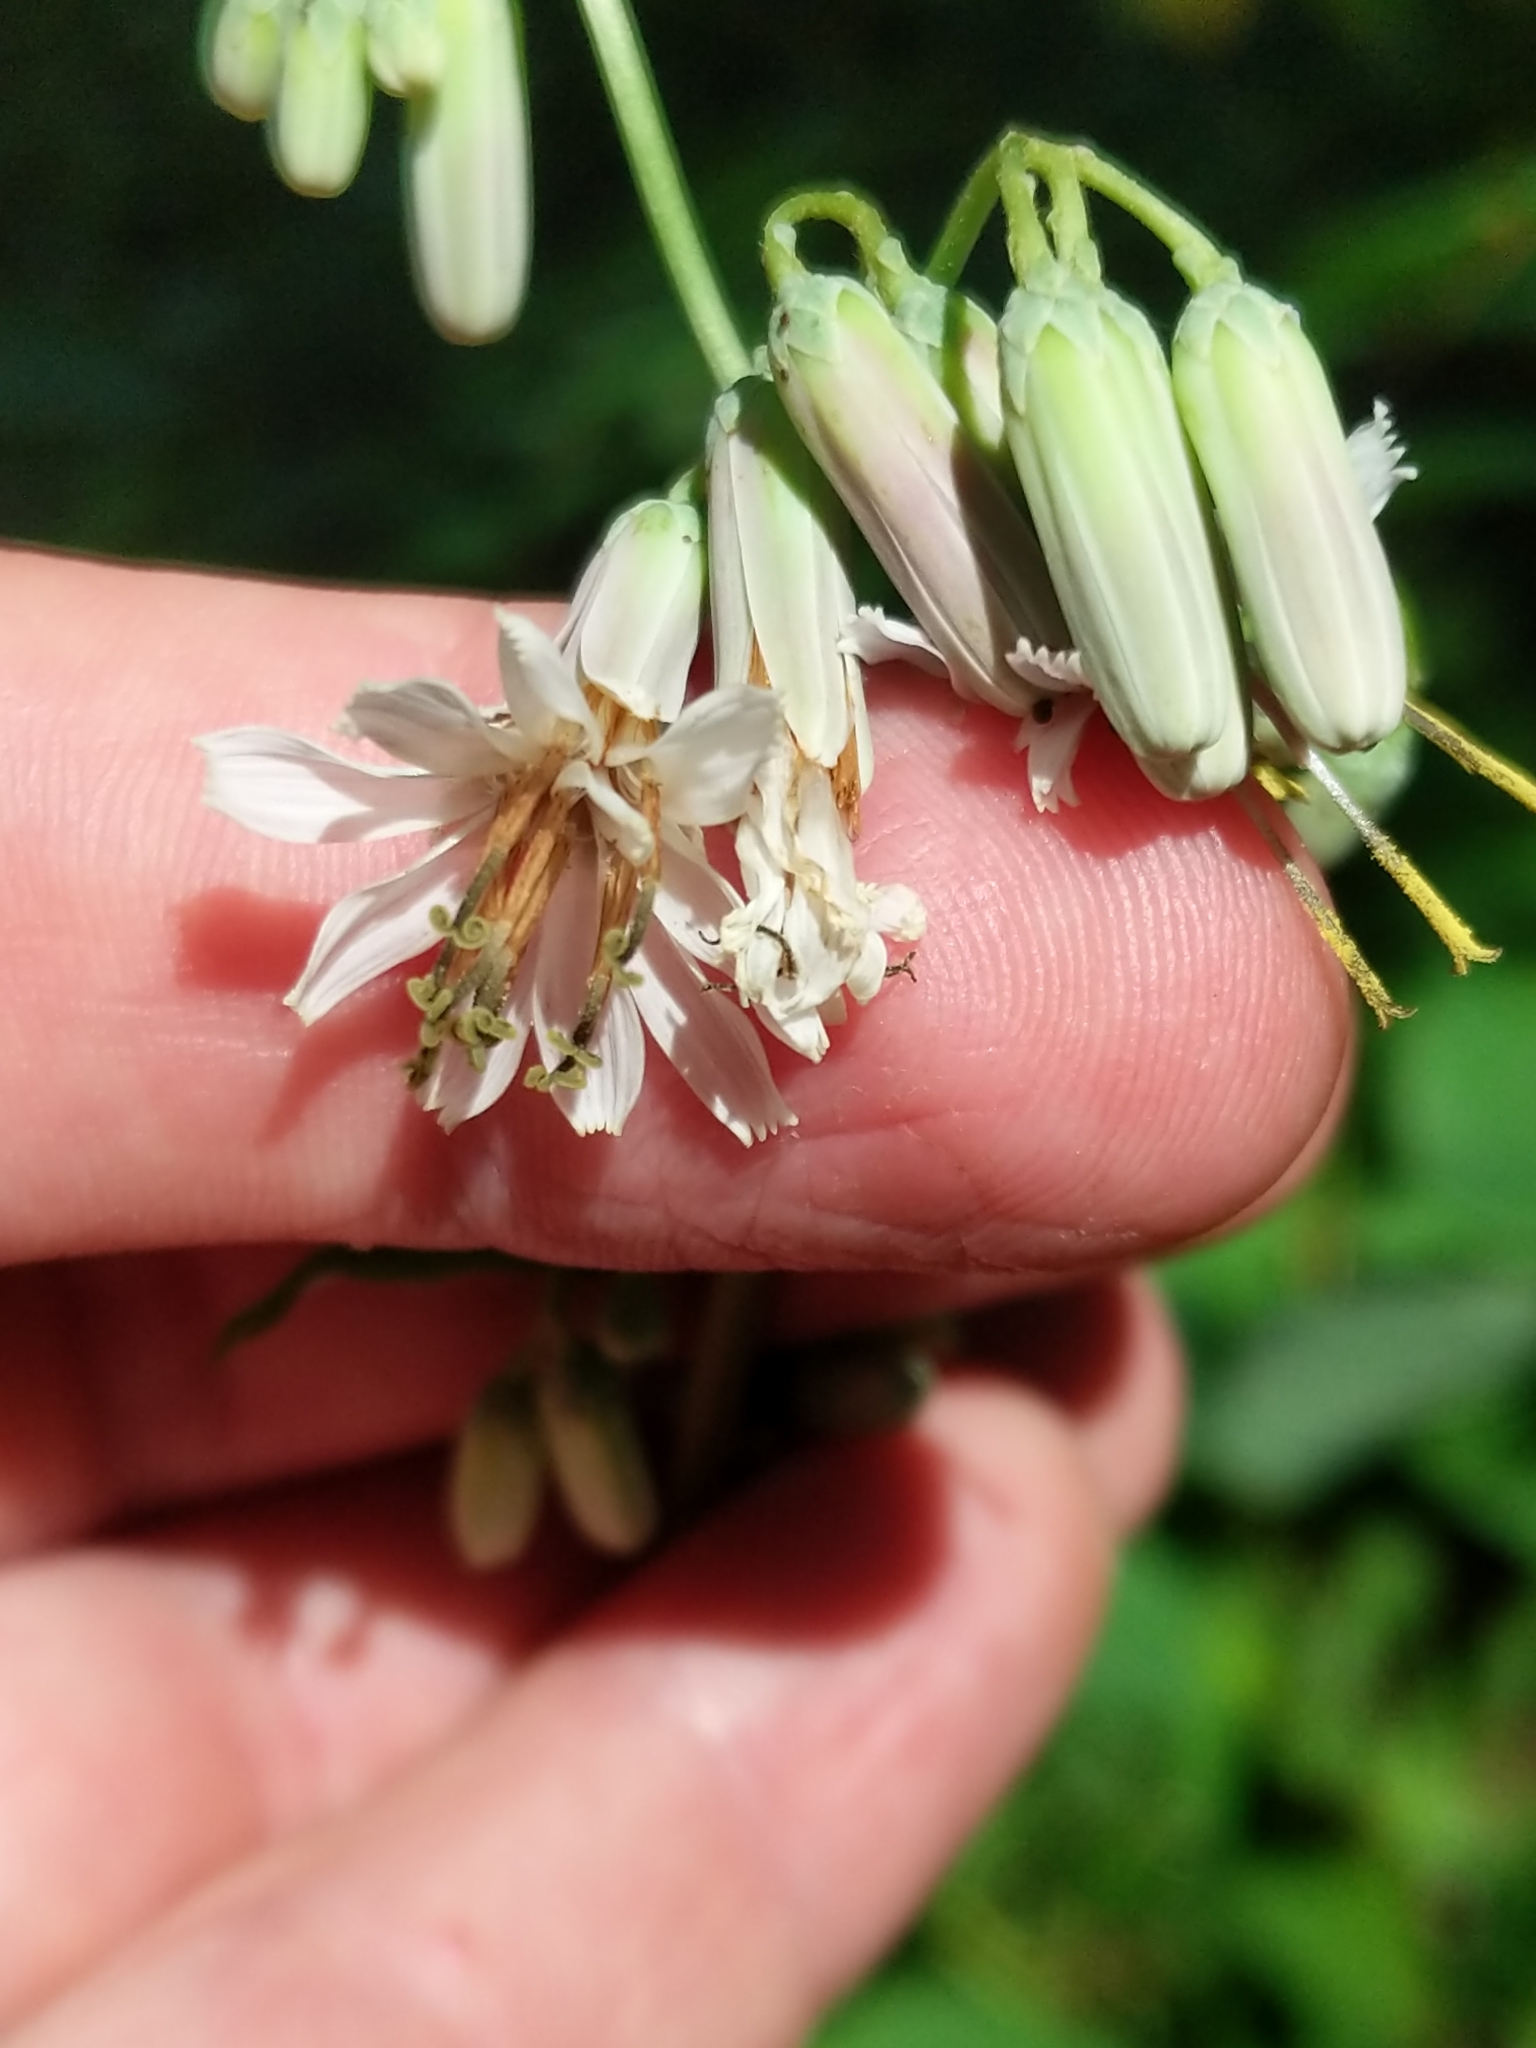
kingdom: Plantae
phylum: Tracheophyta
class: Magnoliopsida
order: Asterales
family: Asteraceae
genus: Nabalus
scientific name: Nabalus albus
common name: White rattlesnakeroot
